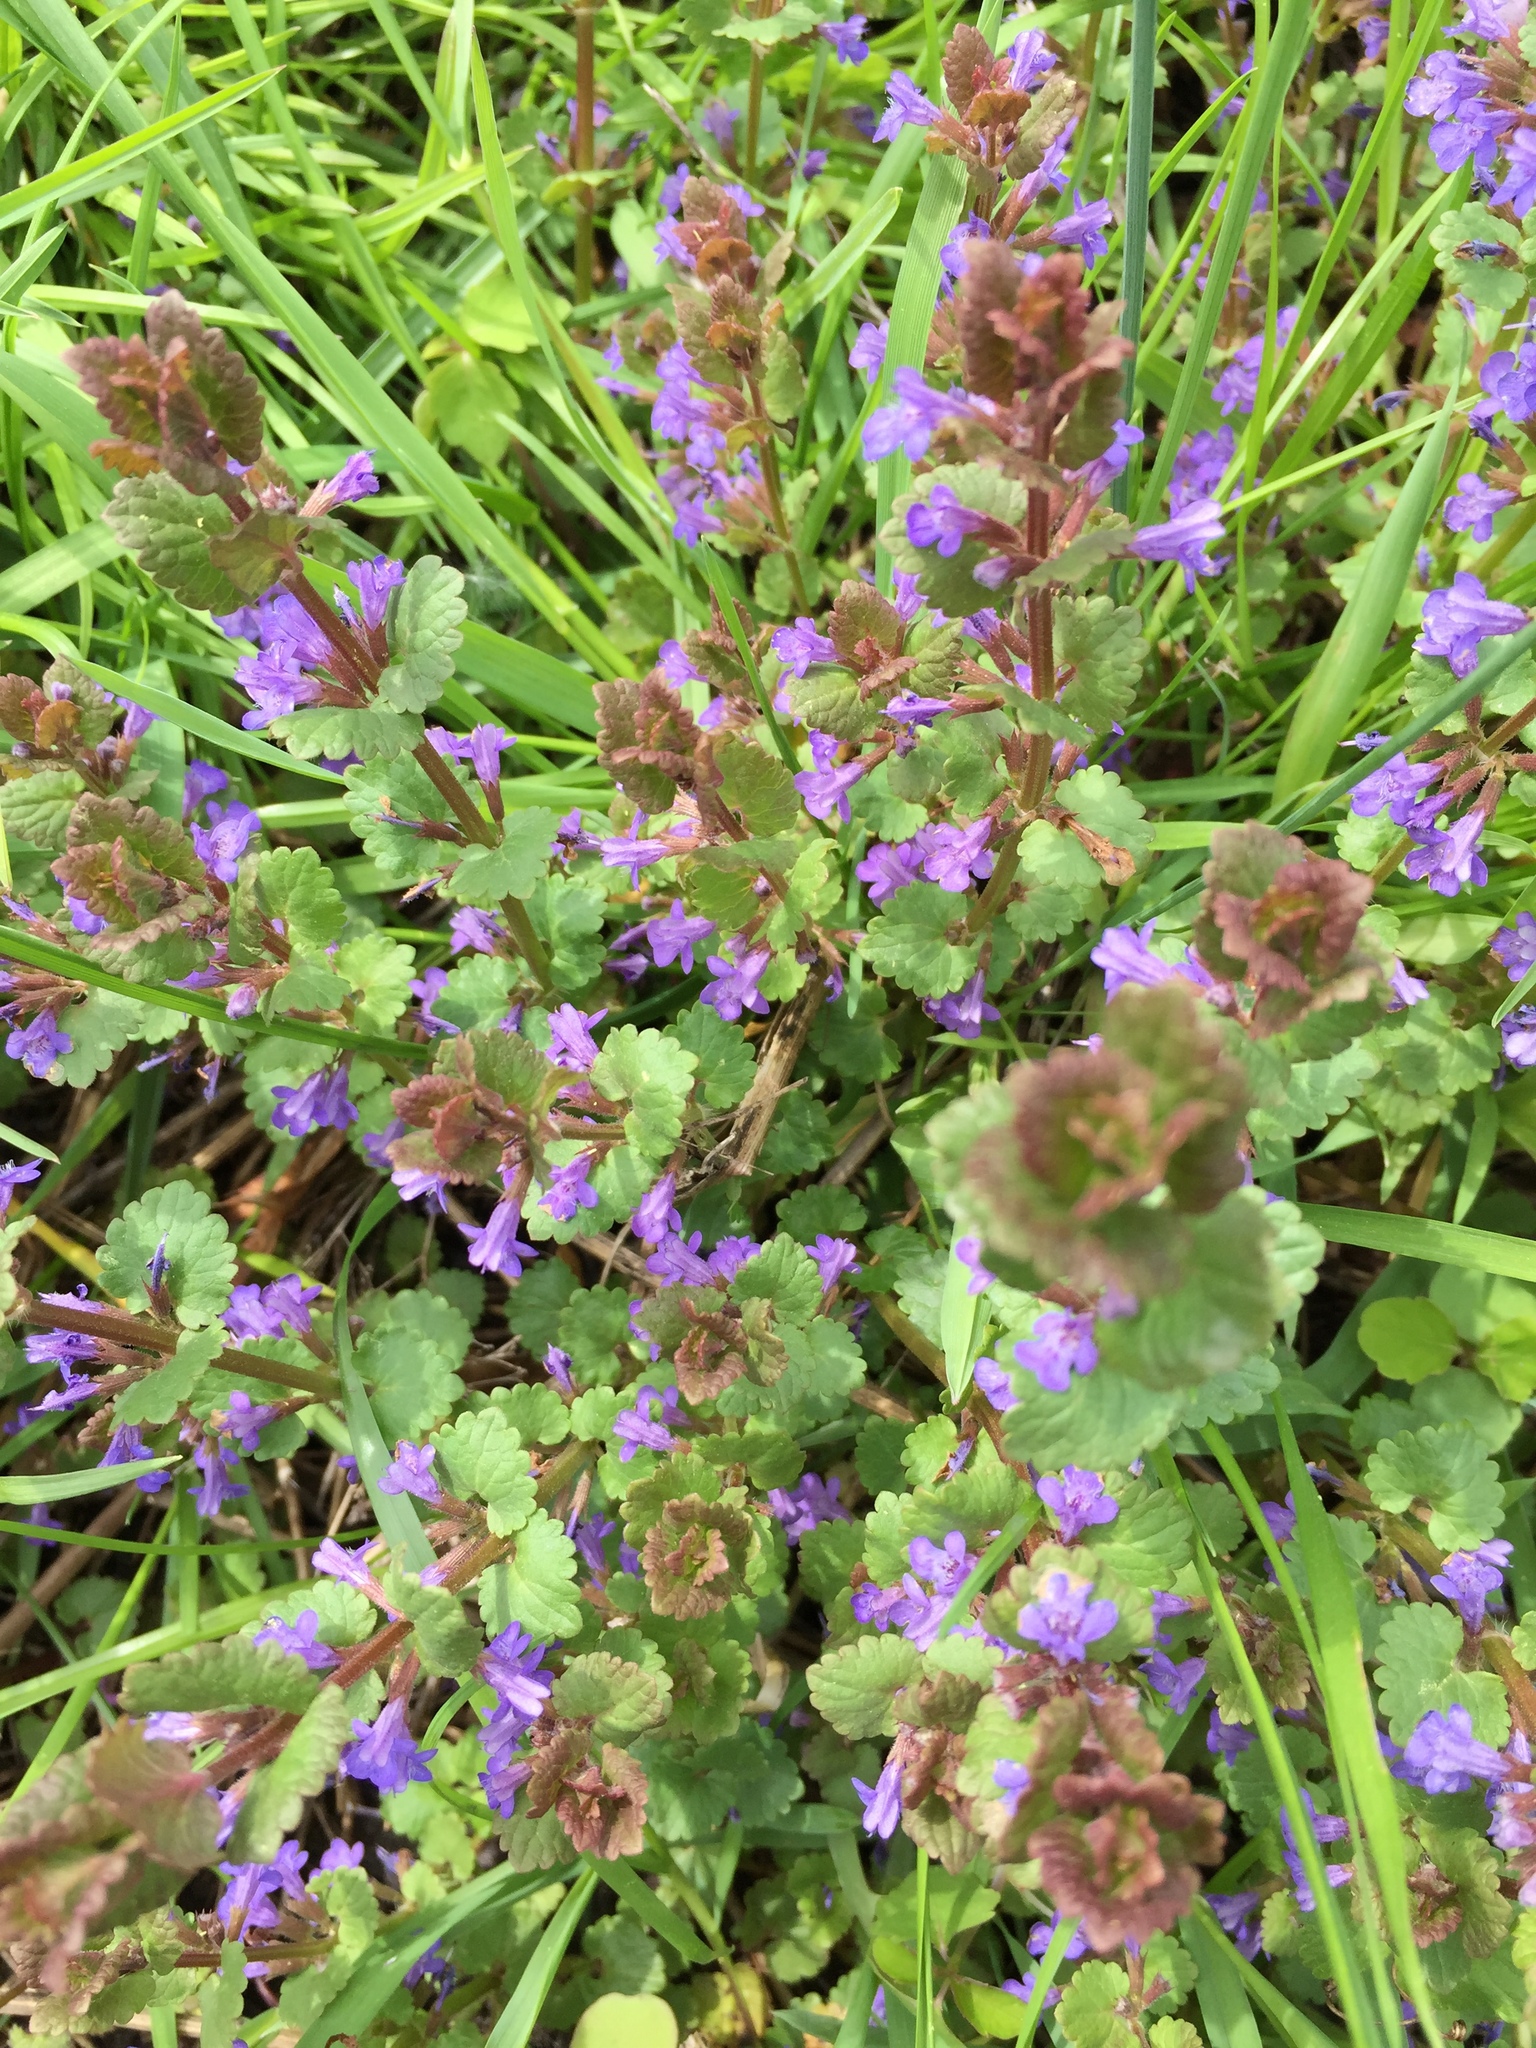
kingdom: Plantae
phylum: Tracheophyta
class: Magnoliopsida
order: Lamiales
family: Lamiaceae
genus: Glechoma
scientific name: Glechoma hederacea
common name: Ground ivy
